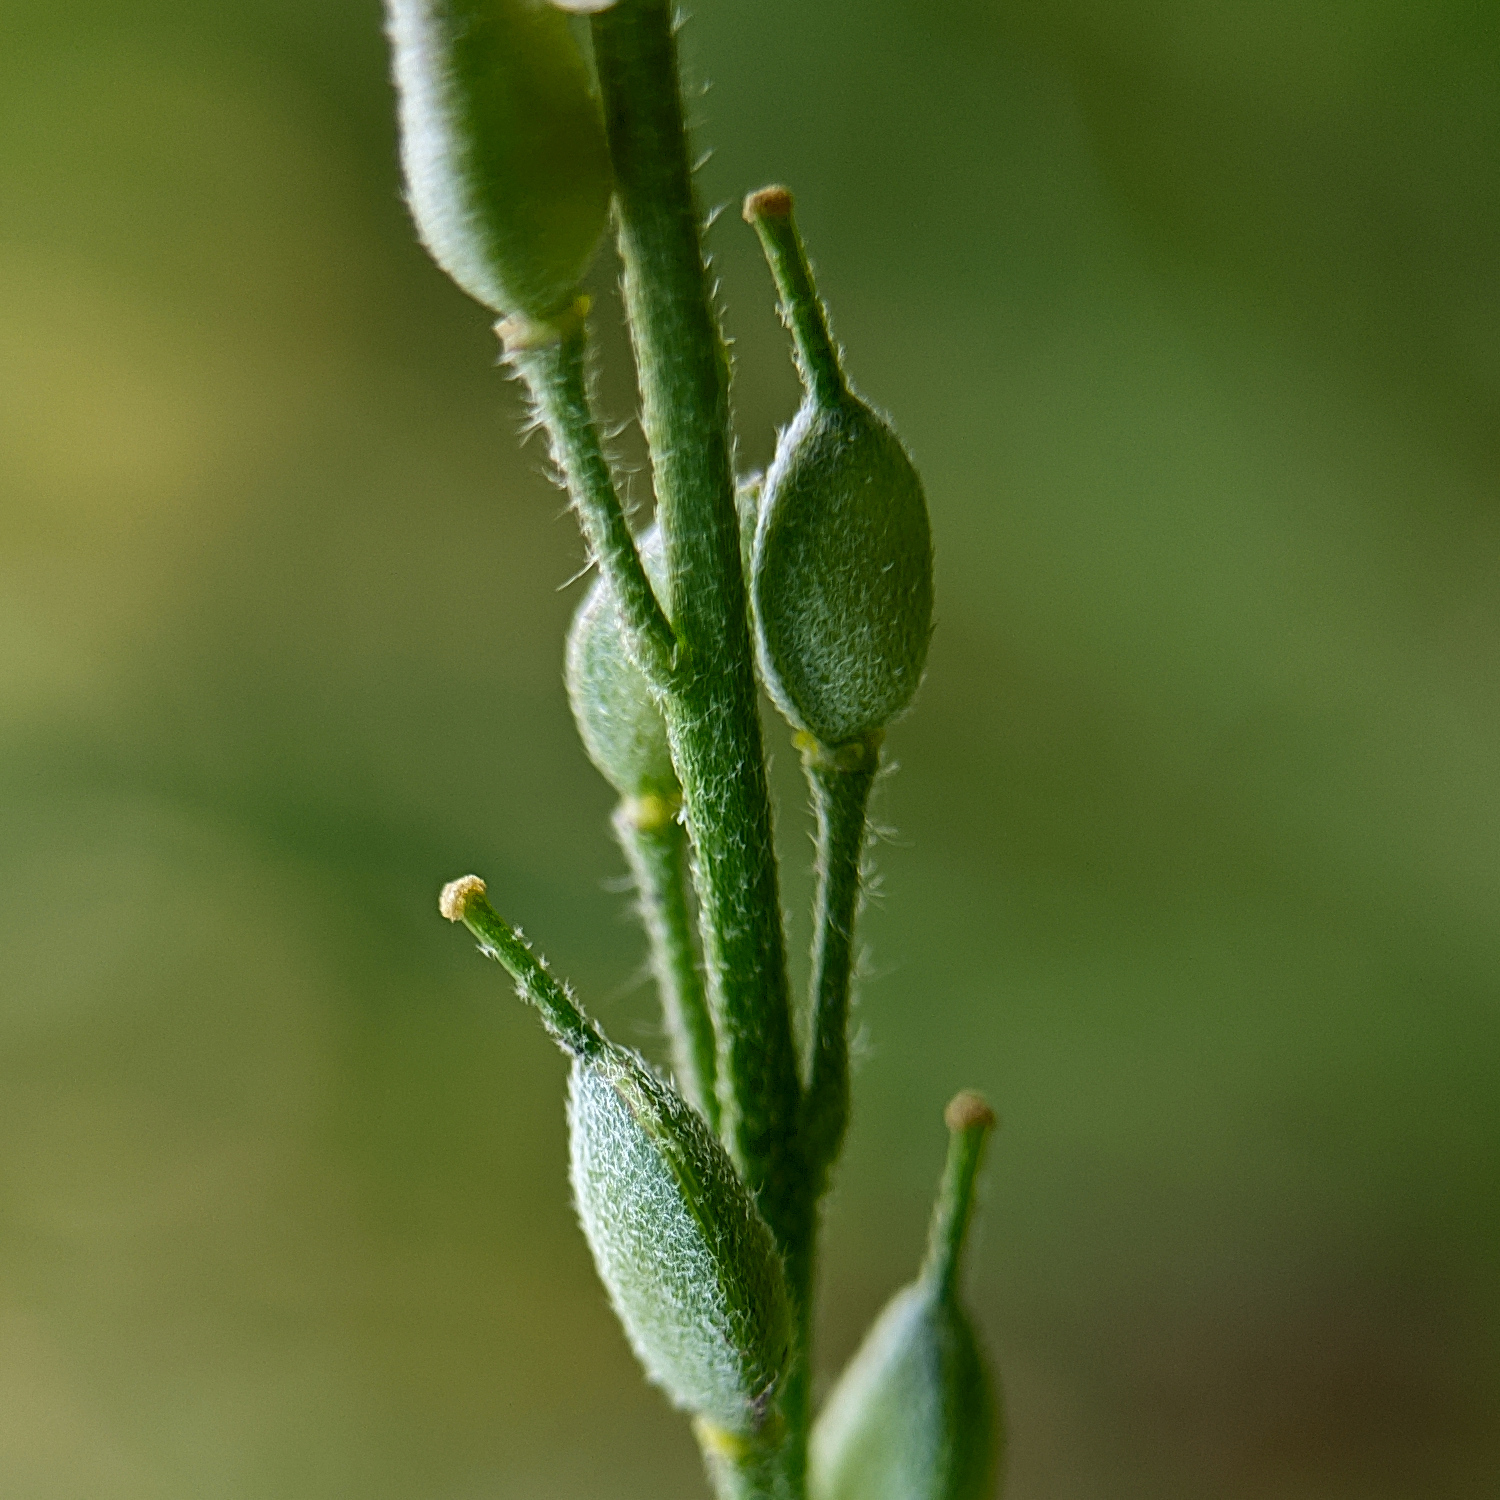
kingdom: Plantae
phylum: Tracheophyta
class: Magnoliopsida
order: Brassicales
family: Brassicaceae
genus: Berteroa
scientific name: Berteroa incana
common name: Hoary alison
